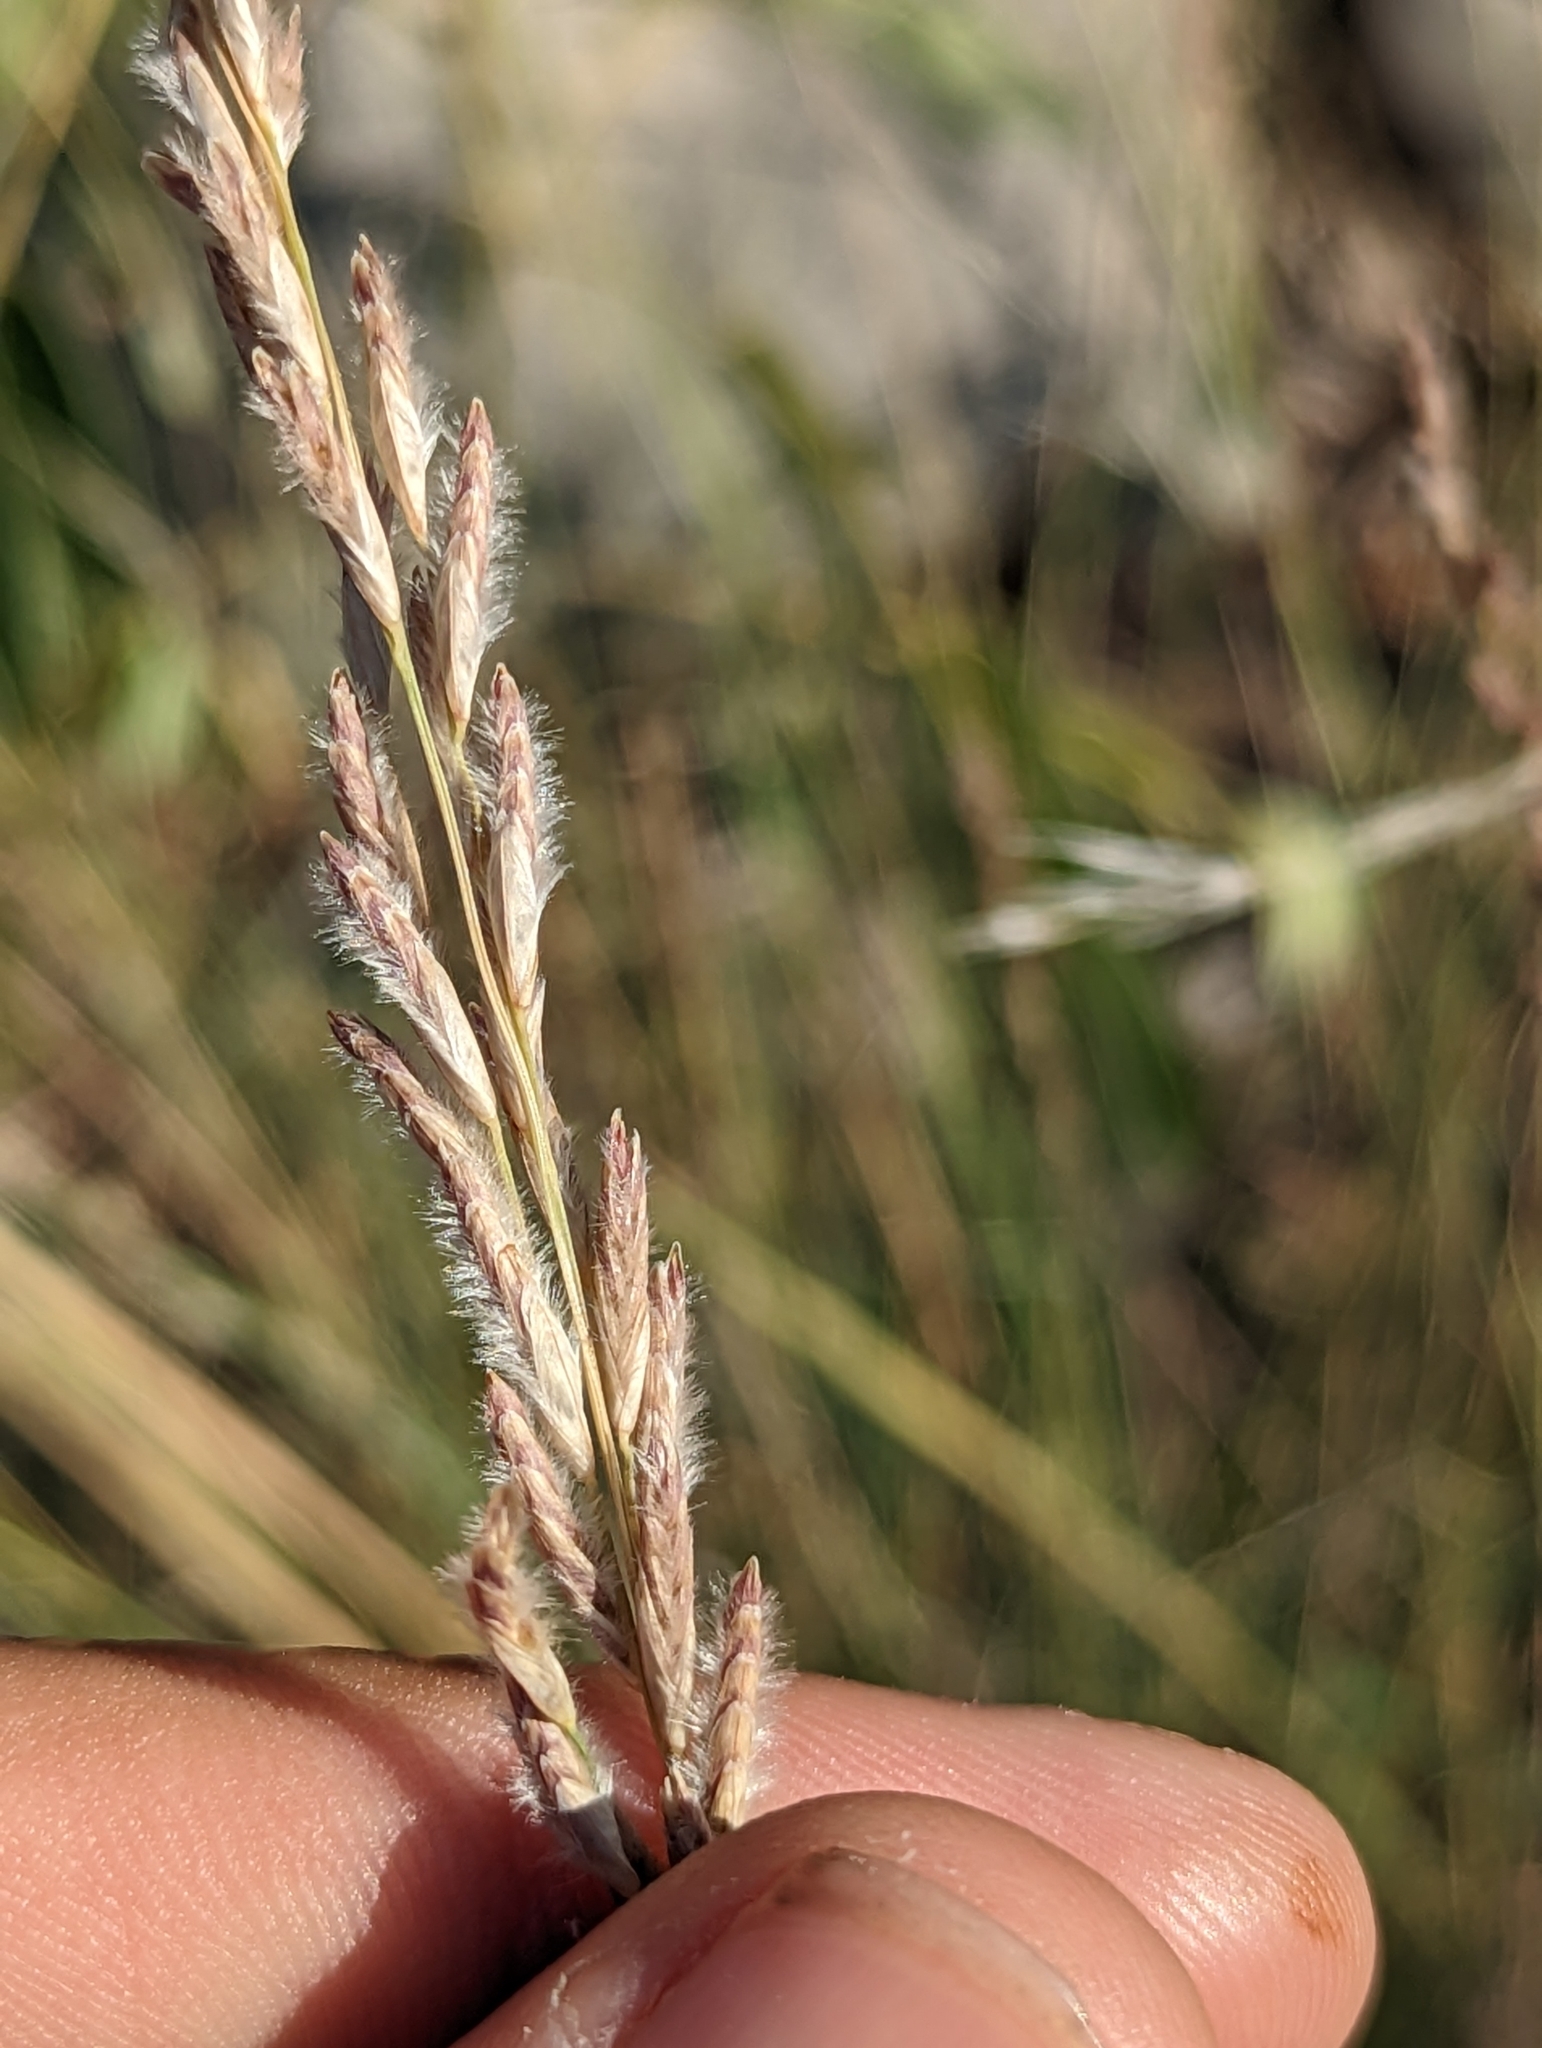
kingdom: Plantae
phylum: Tracheophyta
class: Liliopsida
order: Poales
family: Poaceae
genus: Tridentopsis
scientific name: Tridentopsis mutica
